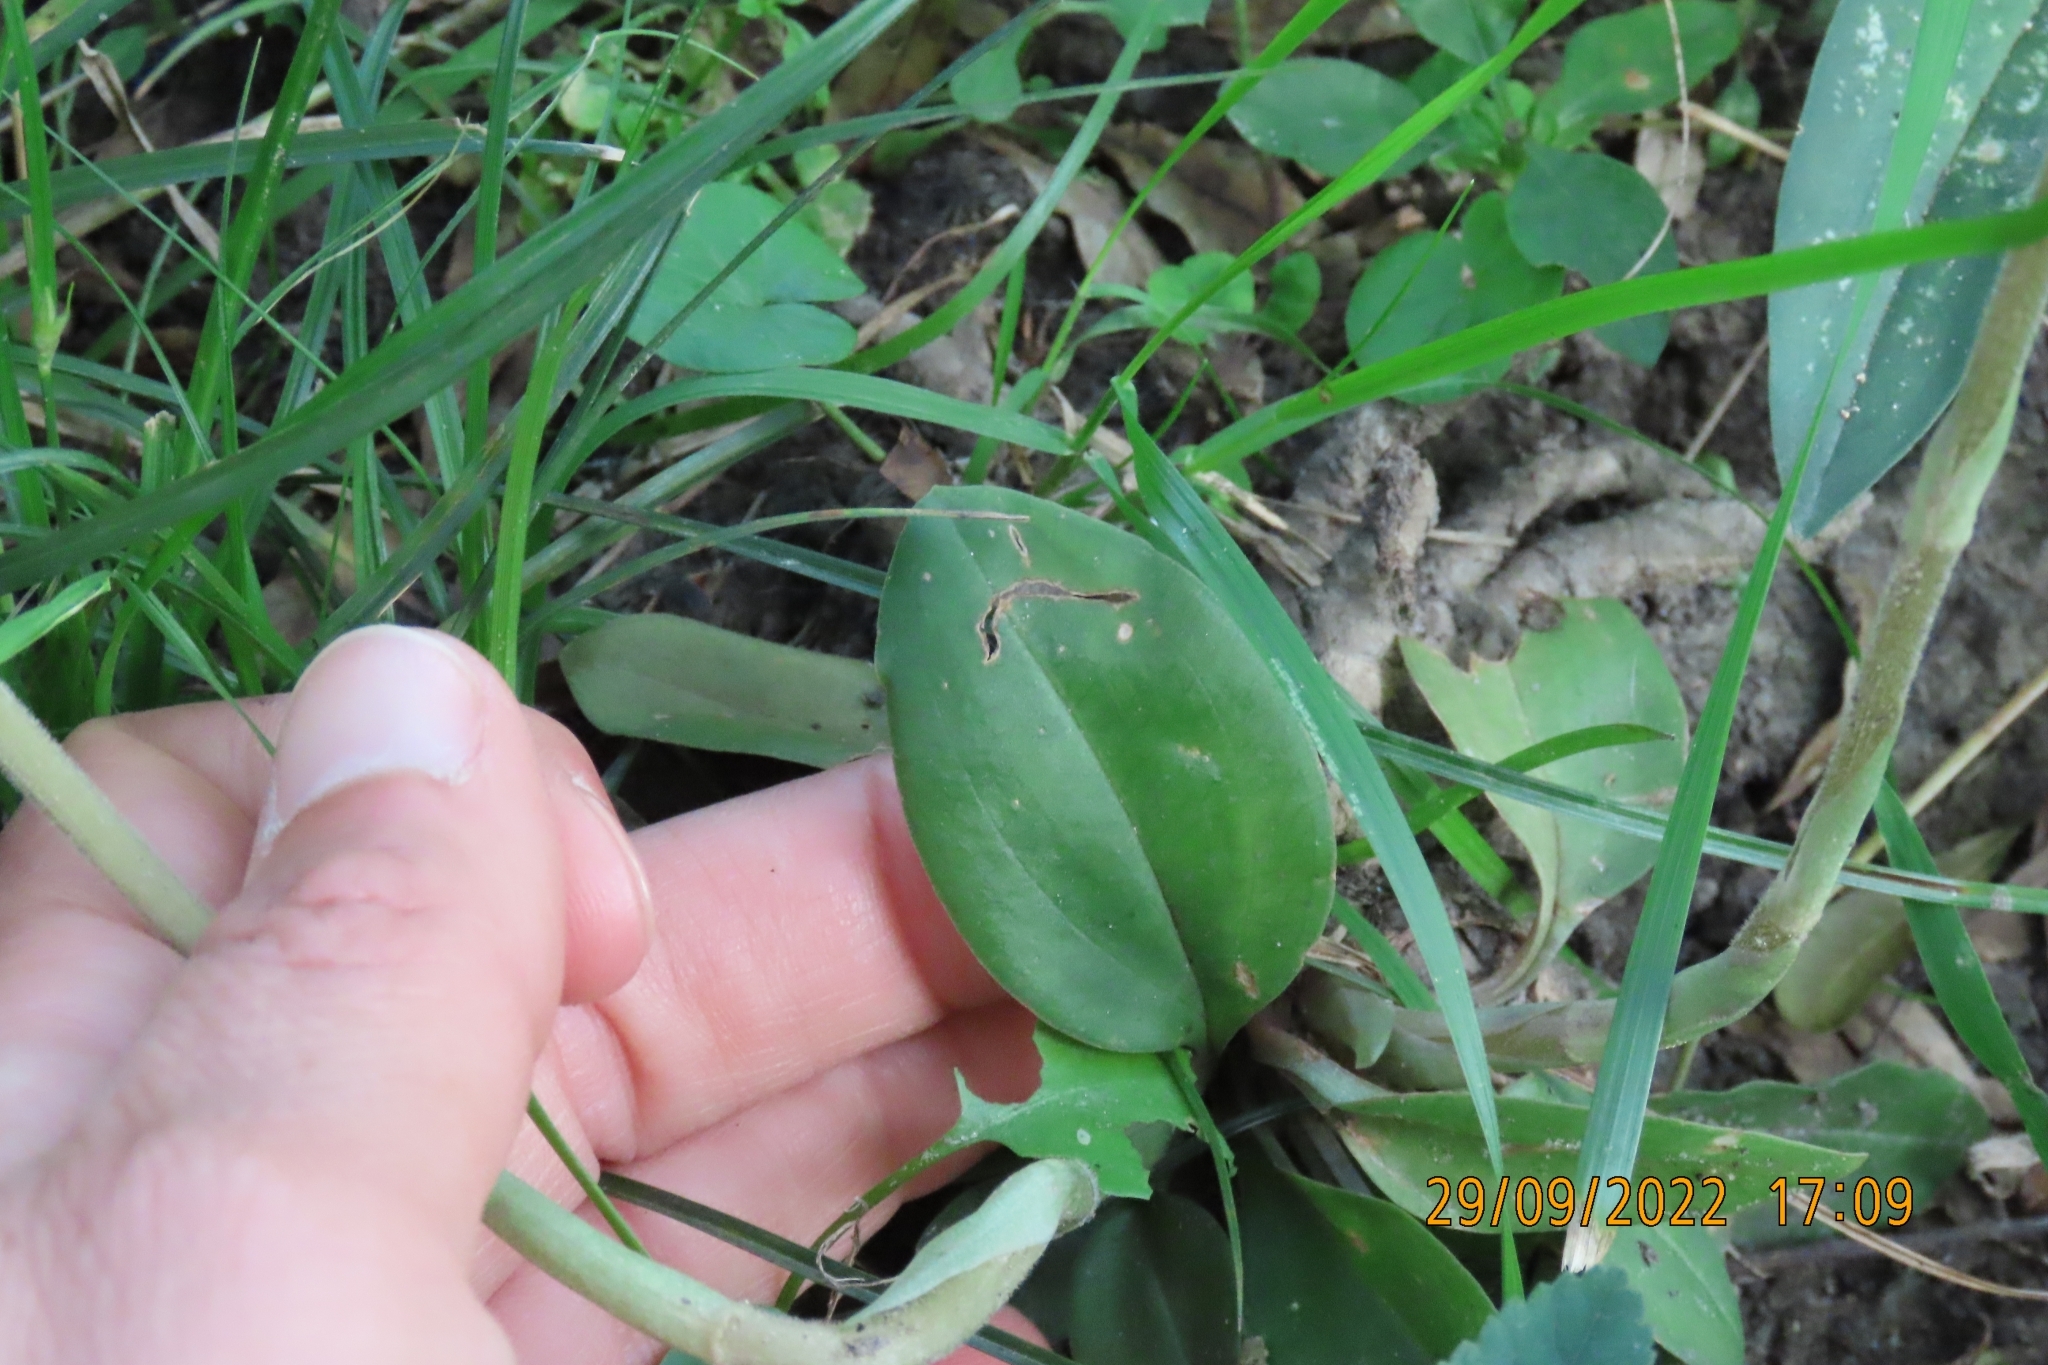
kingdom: Plantae
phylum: Tracheophyta
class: Liliopsida
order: Asparagales
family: Orchidaceae
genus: Cyclopogon
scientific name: Cyclopogon elatus
